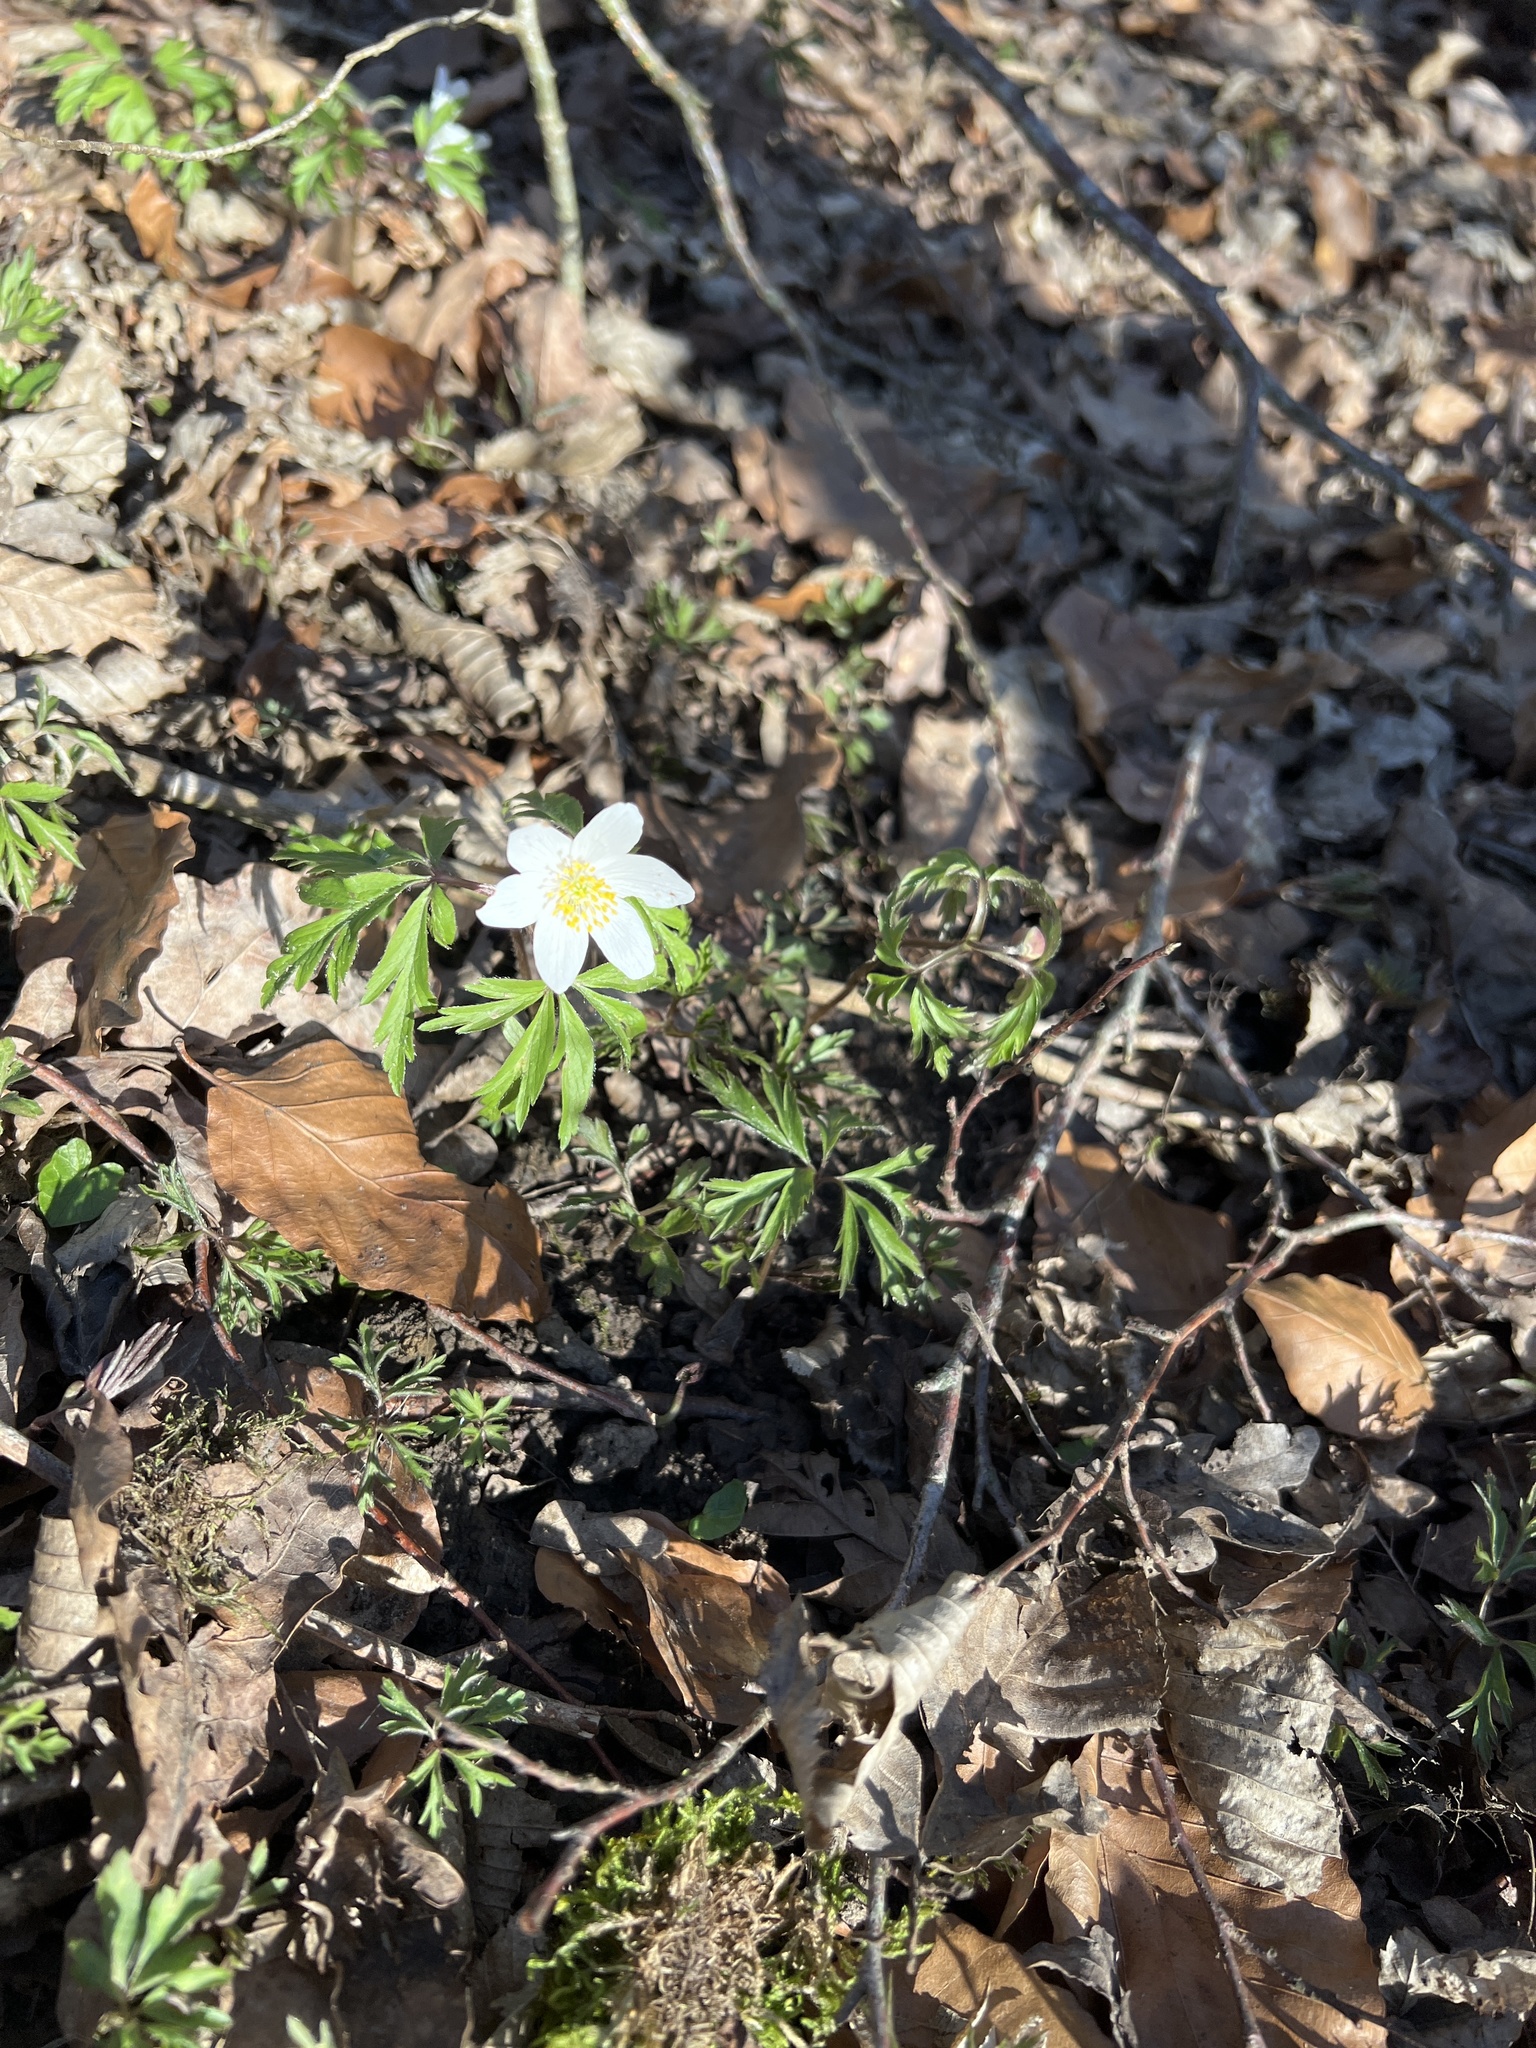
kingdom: Plantae
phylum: Tracheophyta
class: Magnoliopsida
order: Ranunculales
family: Ranunculaceae
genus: Anemone
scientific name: Anemone nemorosa
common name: Wood anemone
